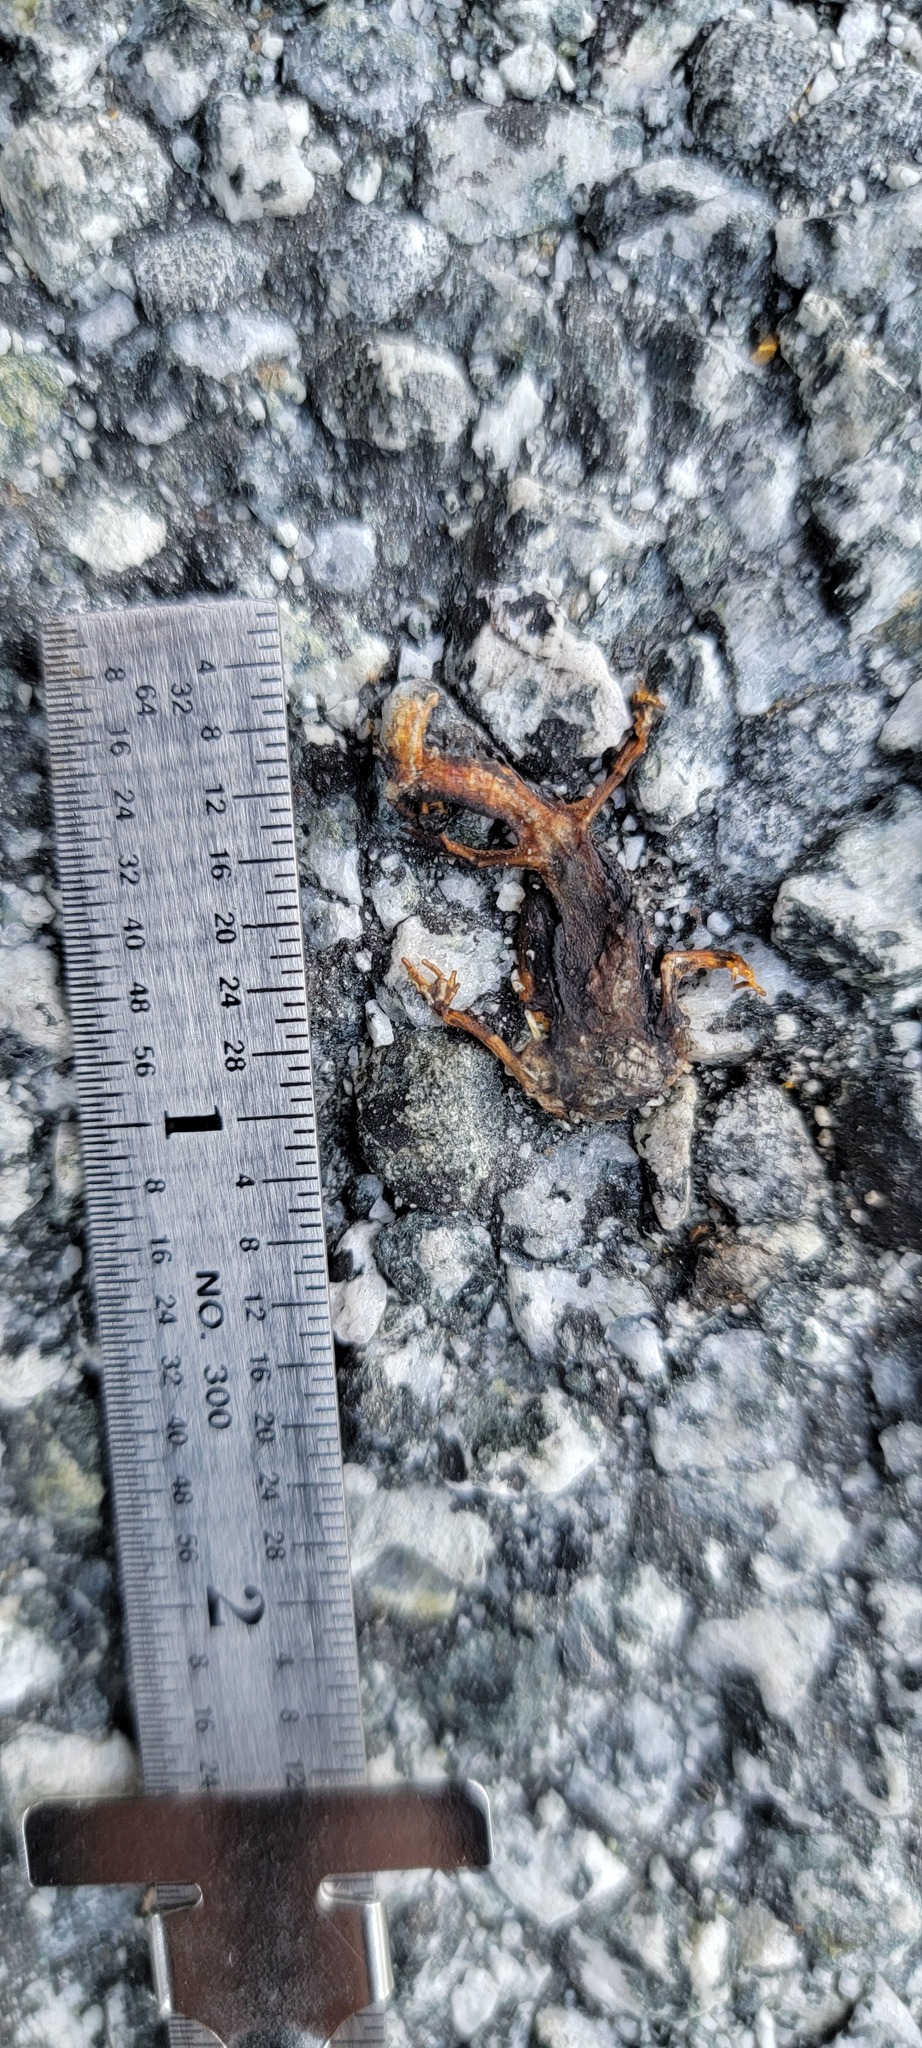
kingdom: Animalia
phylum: Chordata
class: Amphibia
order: Caudata
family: Salamandridae
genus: Taricha
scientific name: Taricha
